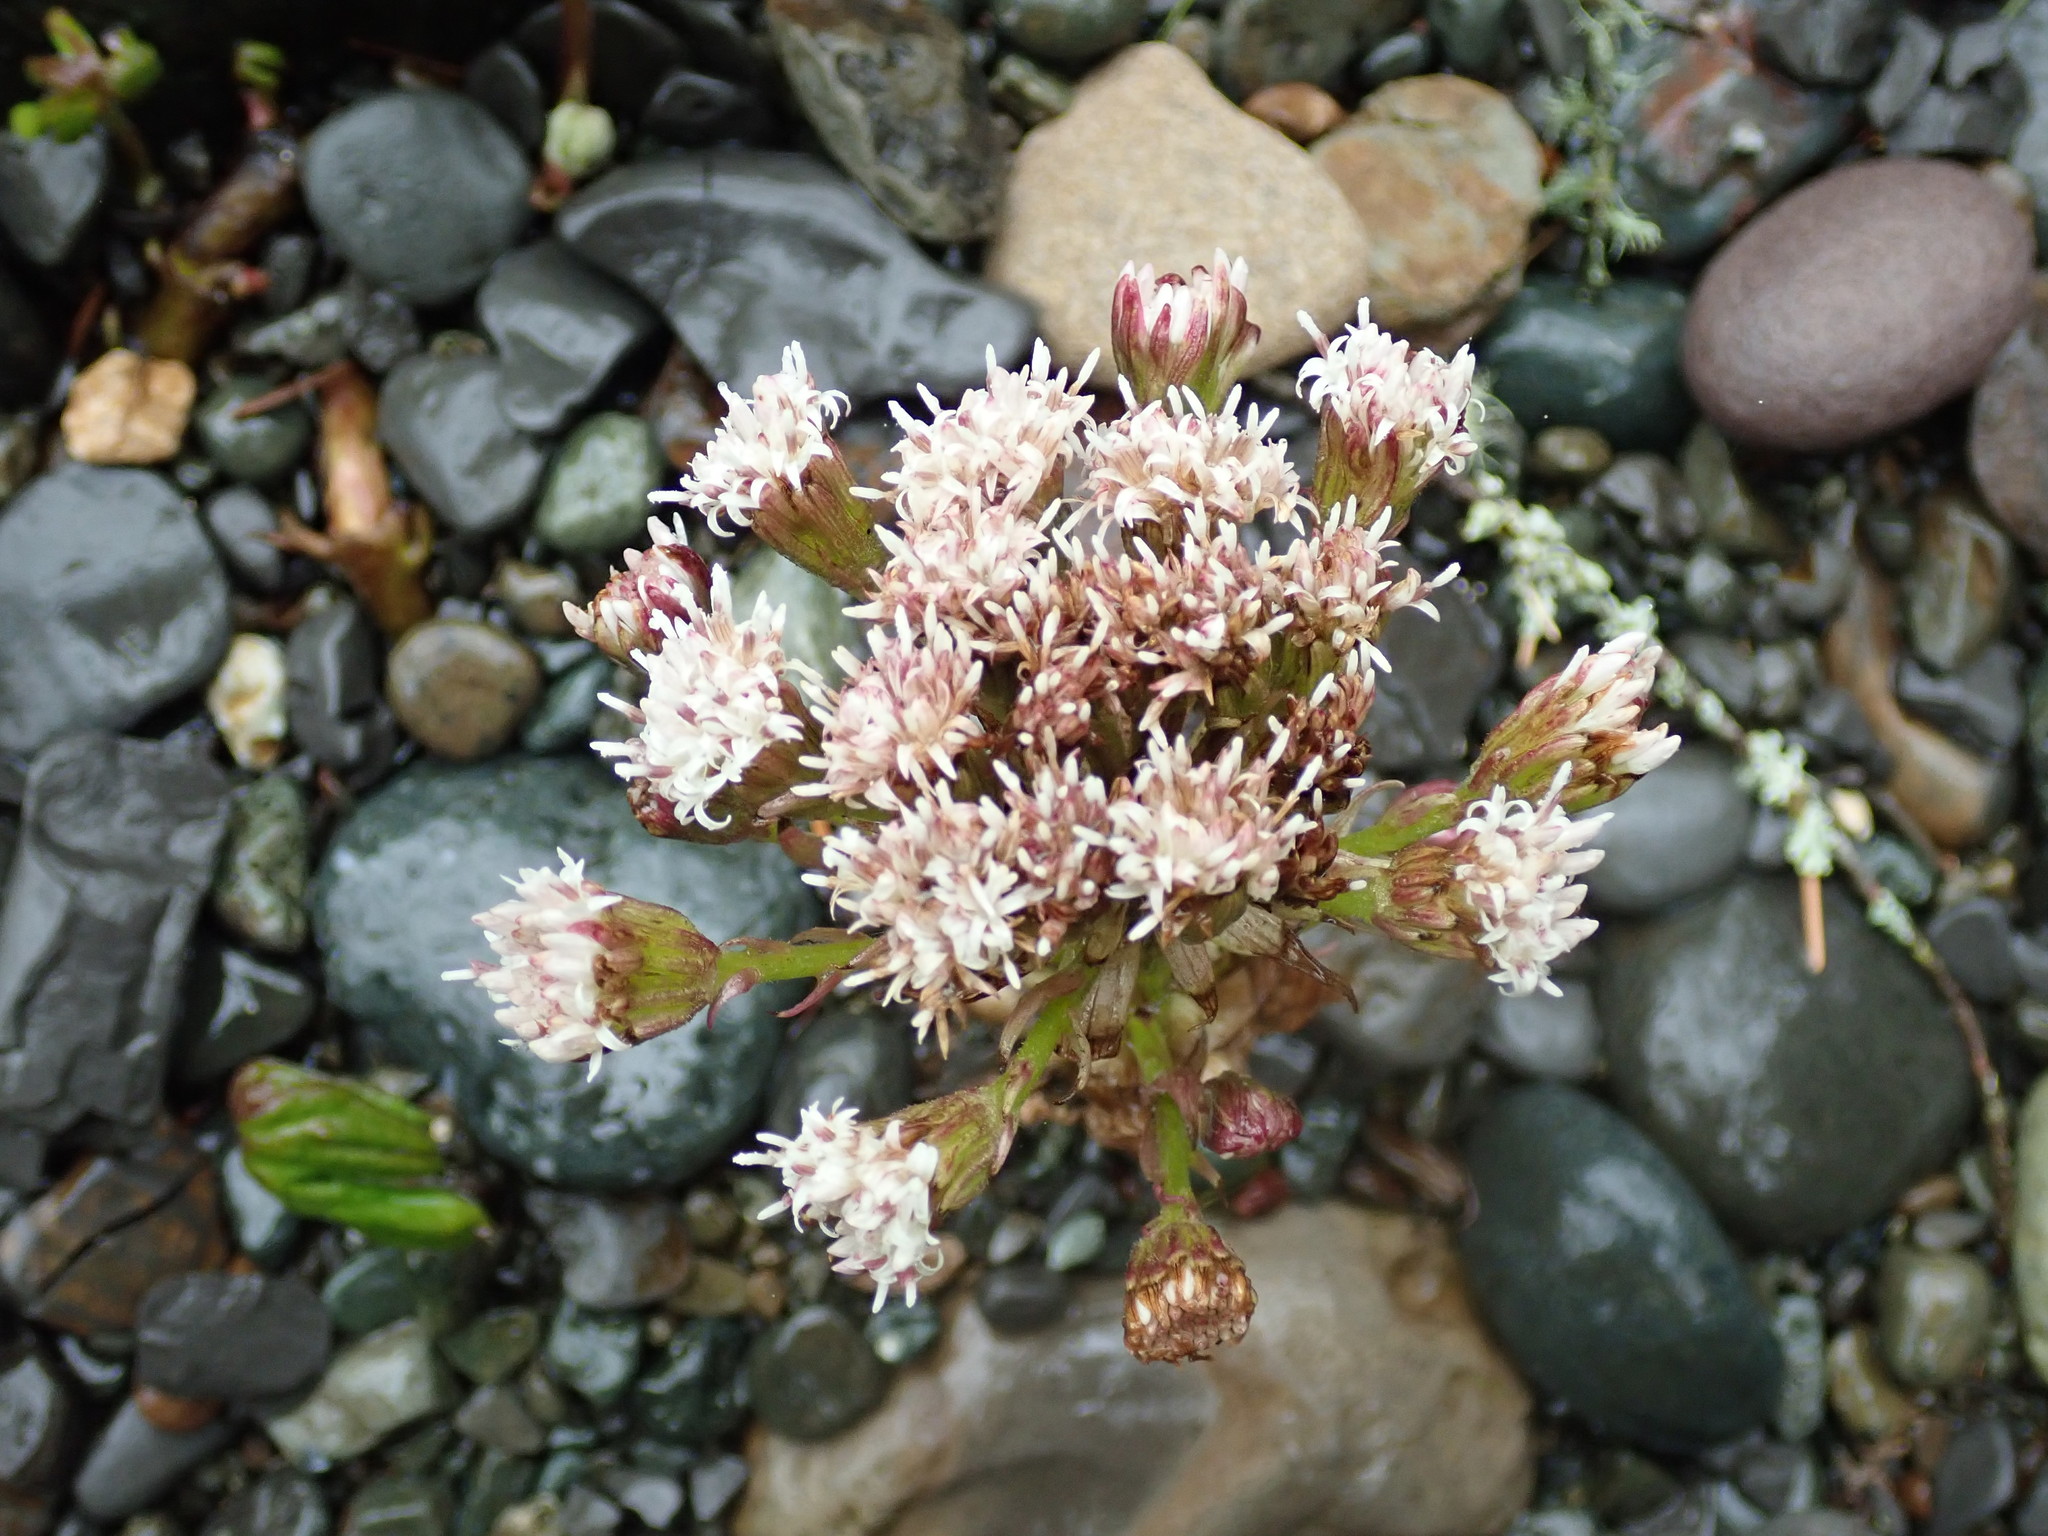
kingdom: Plantae
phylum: Tracheophyta
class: Magnoliopsida
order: Asterales
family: Asteraceae
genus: Petasites
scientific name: Petasites frigidus
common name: Arctic butterbur
